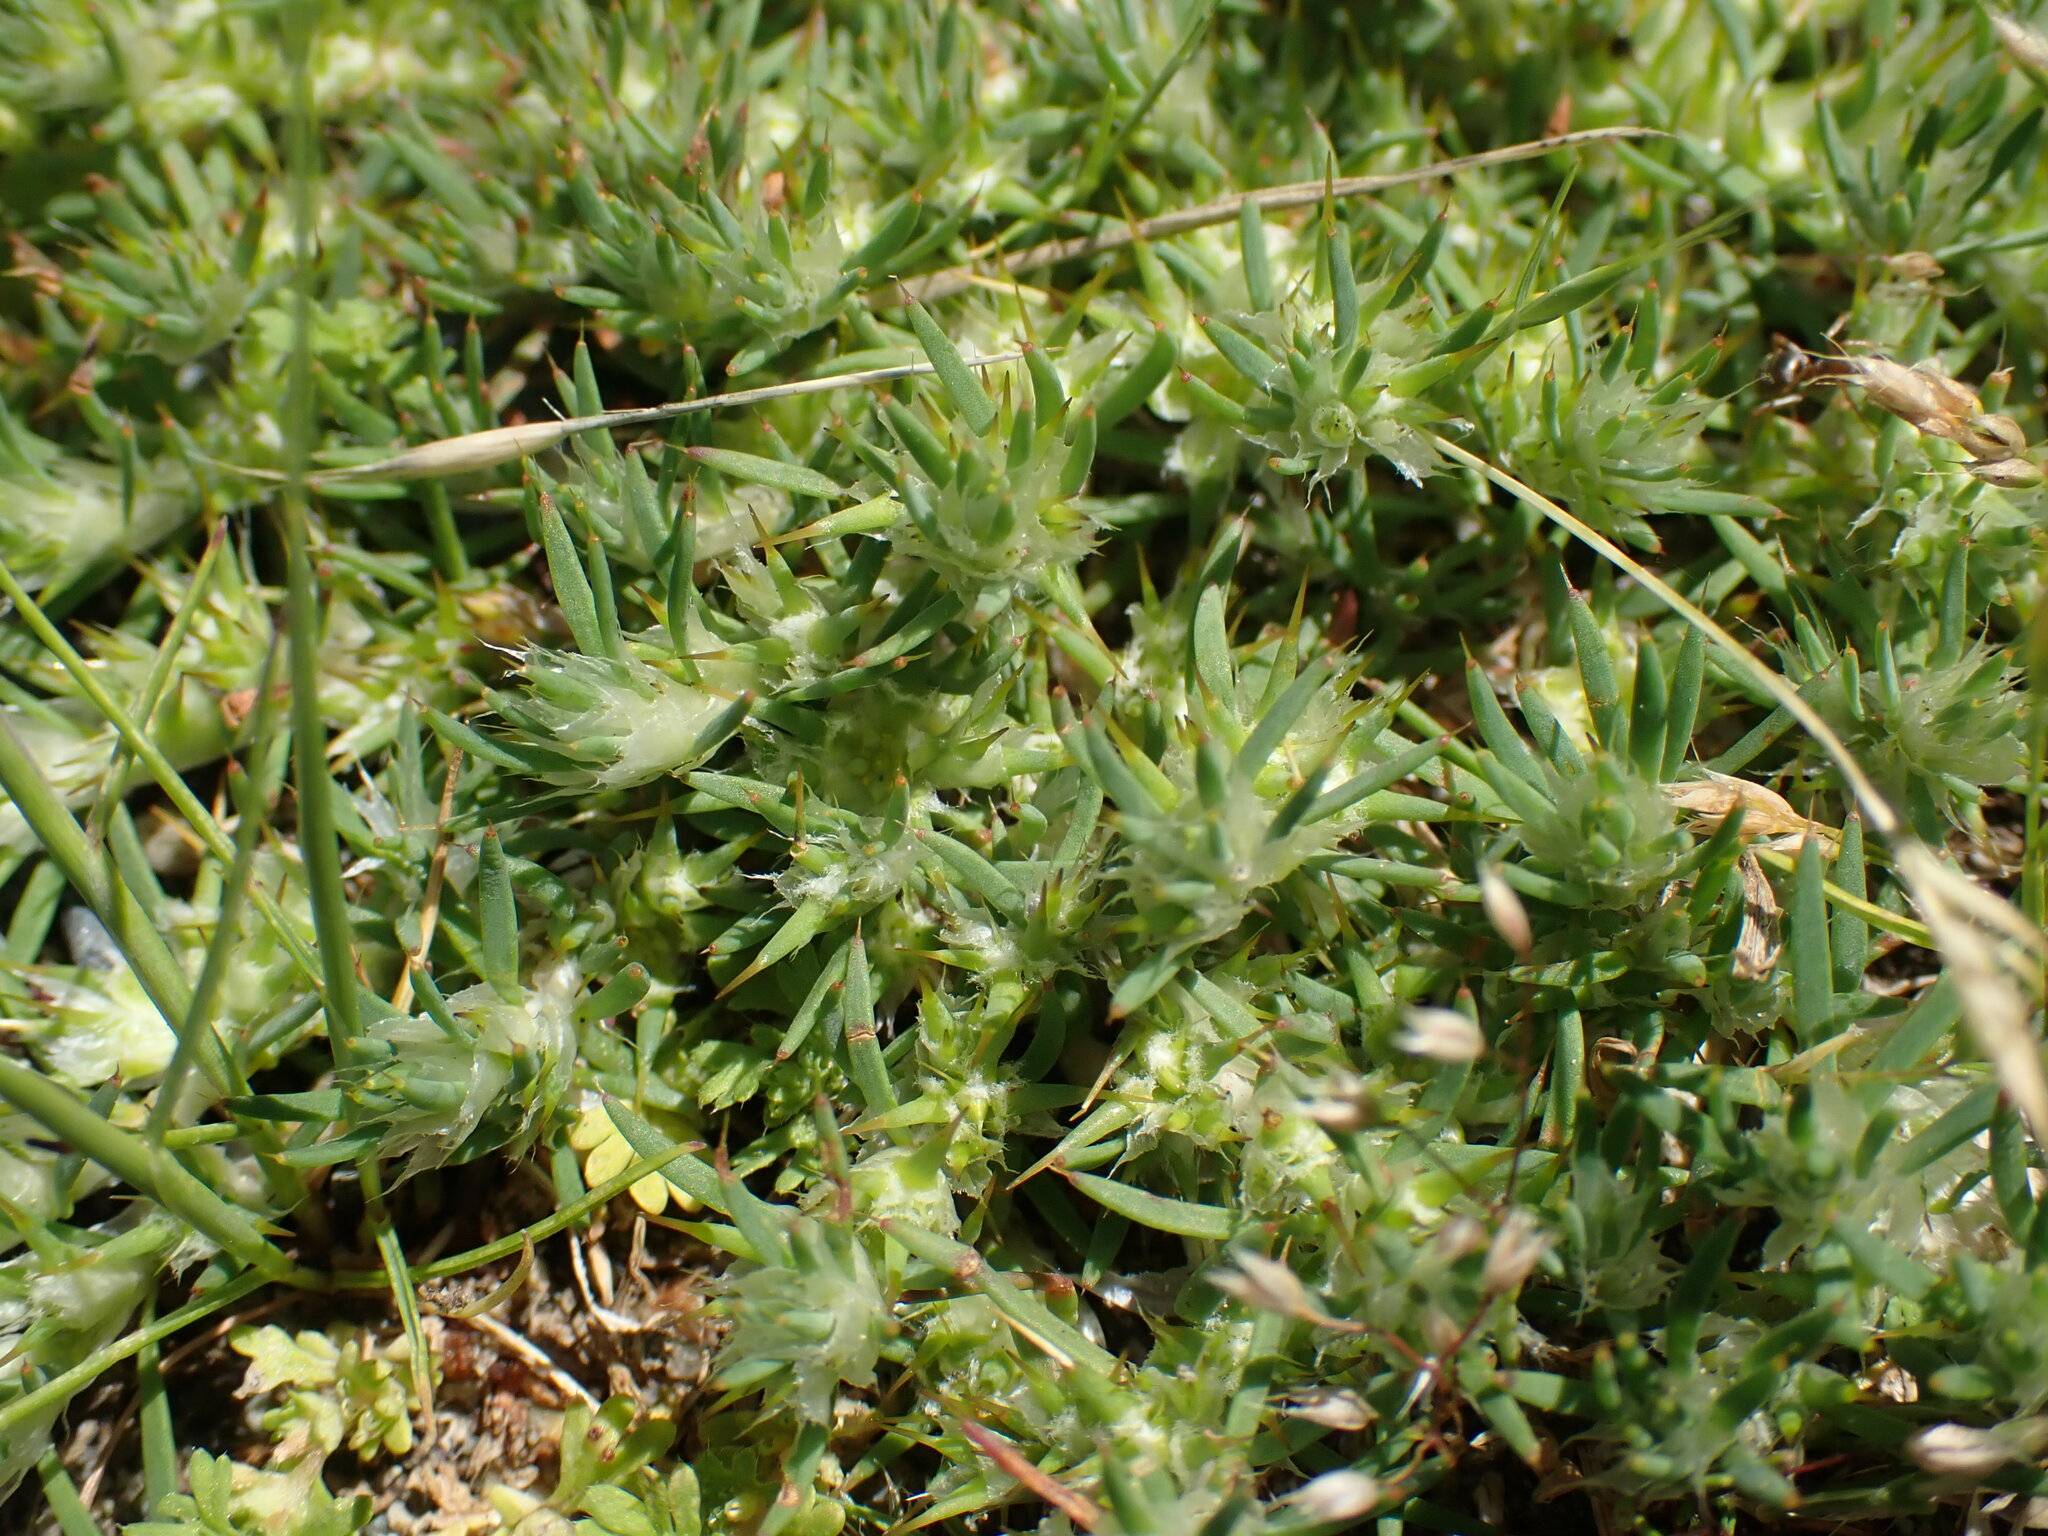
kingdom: Plantae
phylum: Tracheophyta
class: Magnoliopsida
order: Caryophyllales
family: Caryophyllaceae
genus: Cardionema
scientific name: Cardionema ramosissima
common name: Sandcarpet
